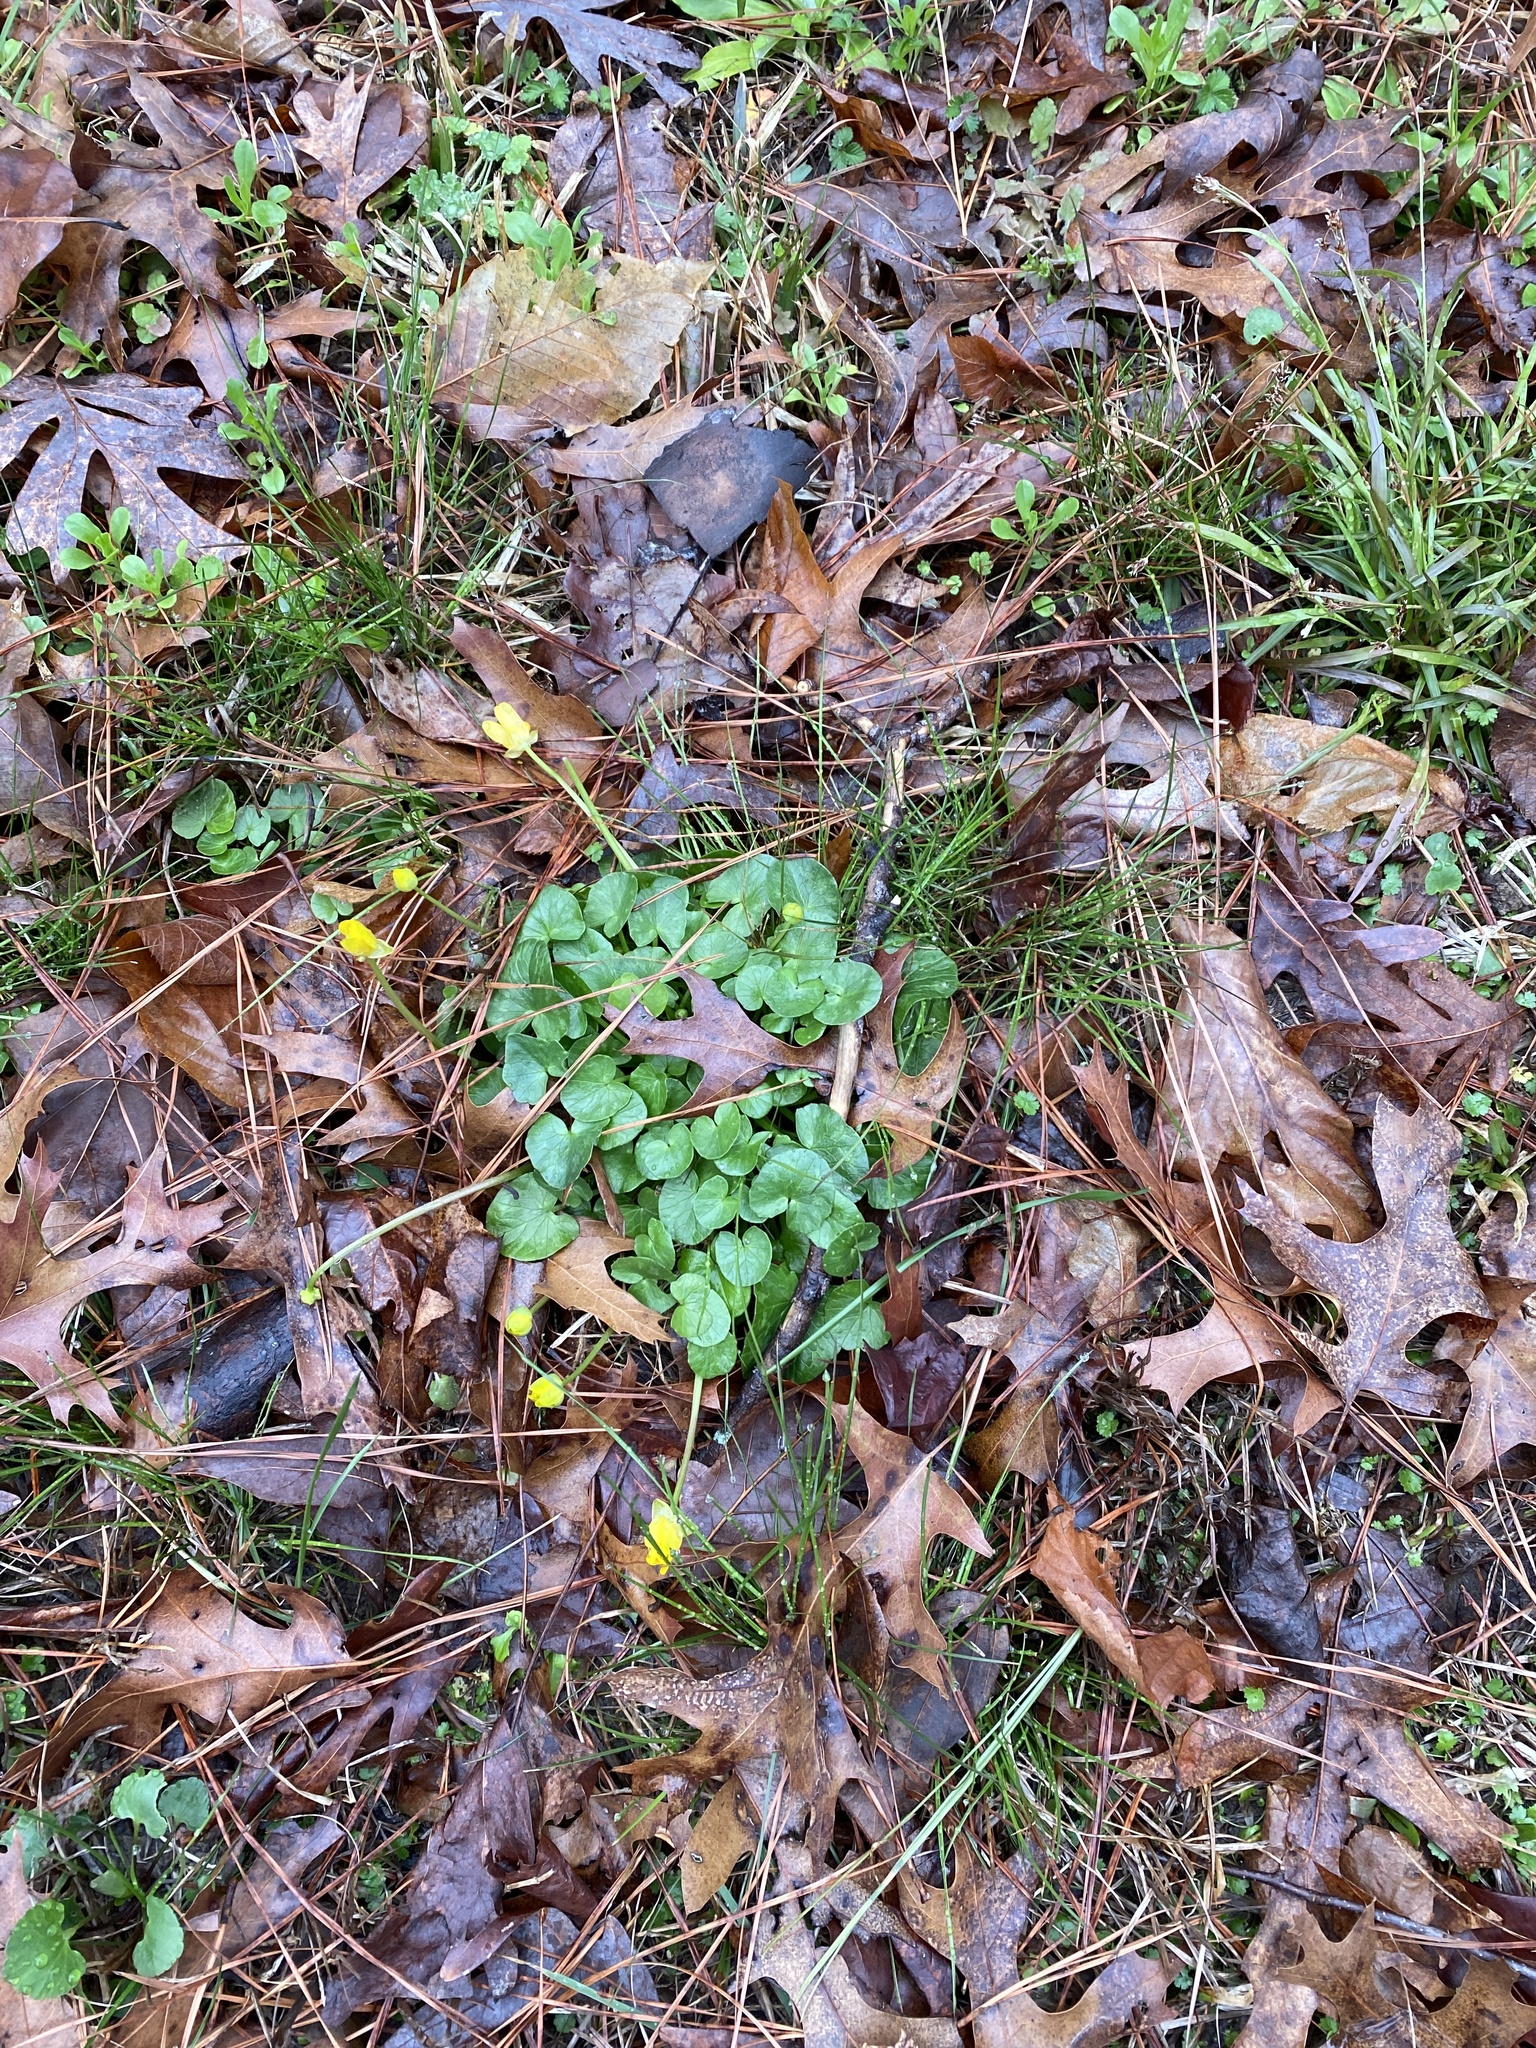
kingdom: Plantae
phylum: Tracheophyta
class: Magnoliopsida
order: Ranunculales
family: Ranunculaceae
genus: Ficaria
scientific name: Ficaria verna
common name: Lesser celandine
